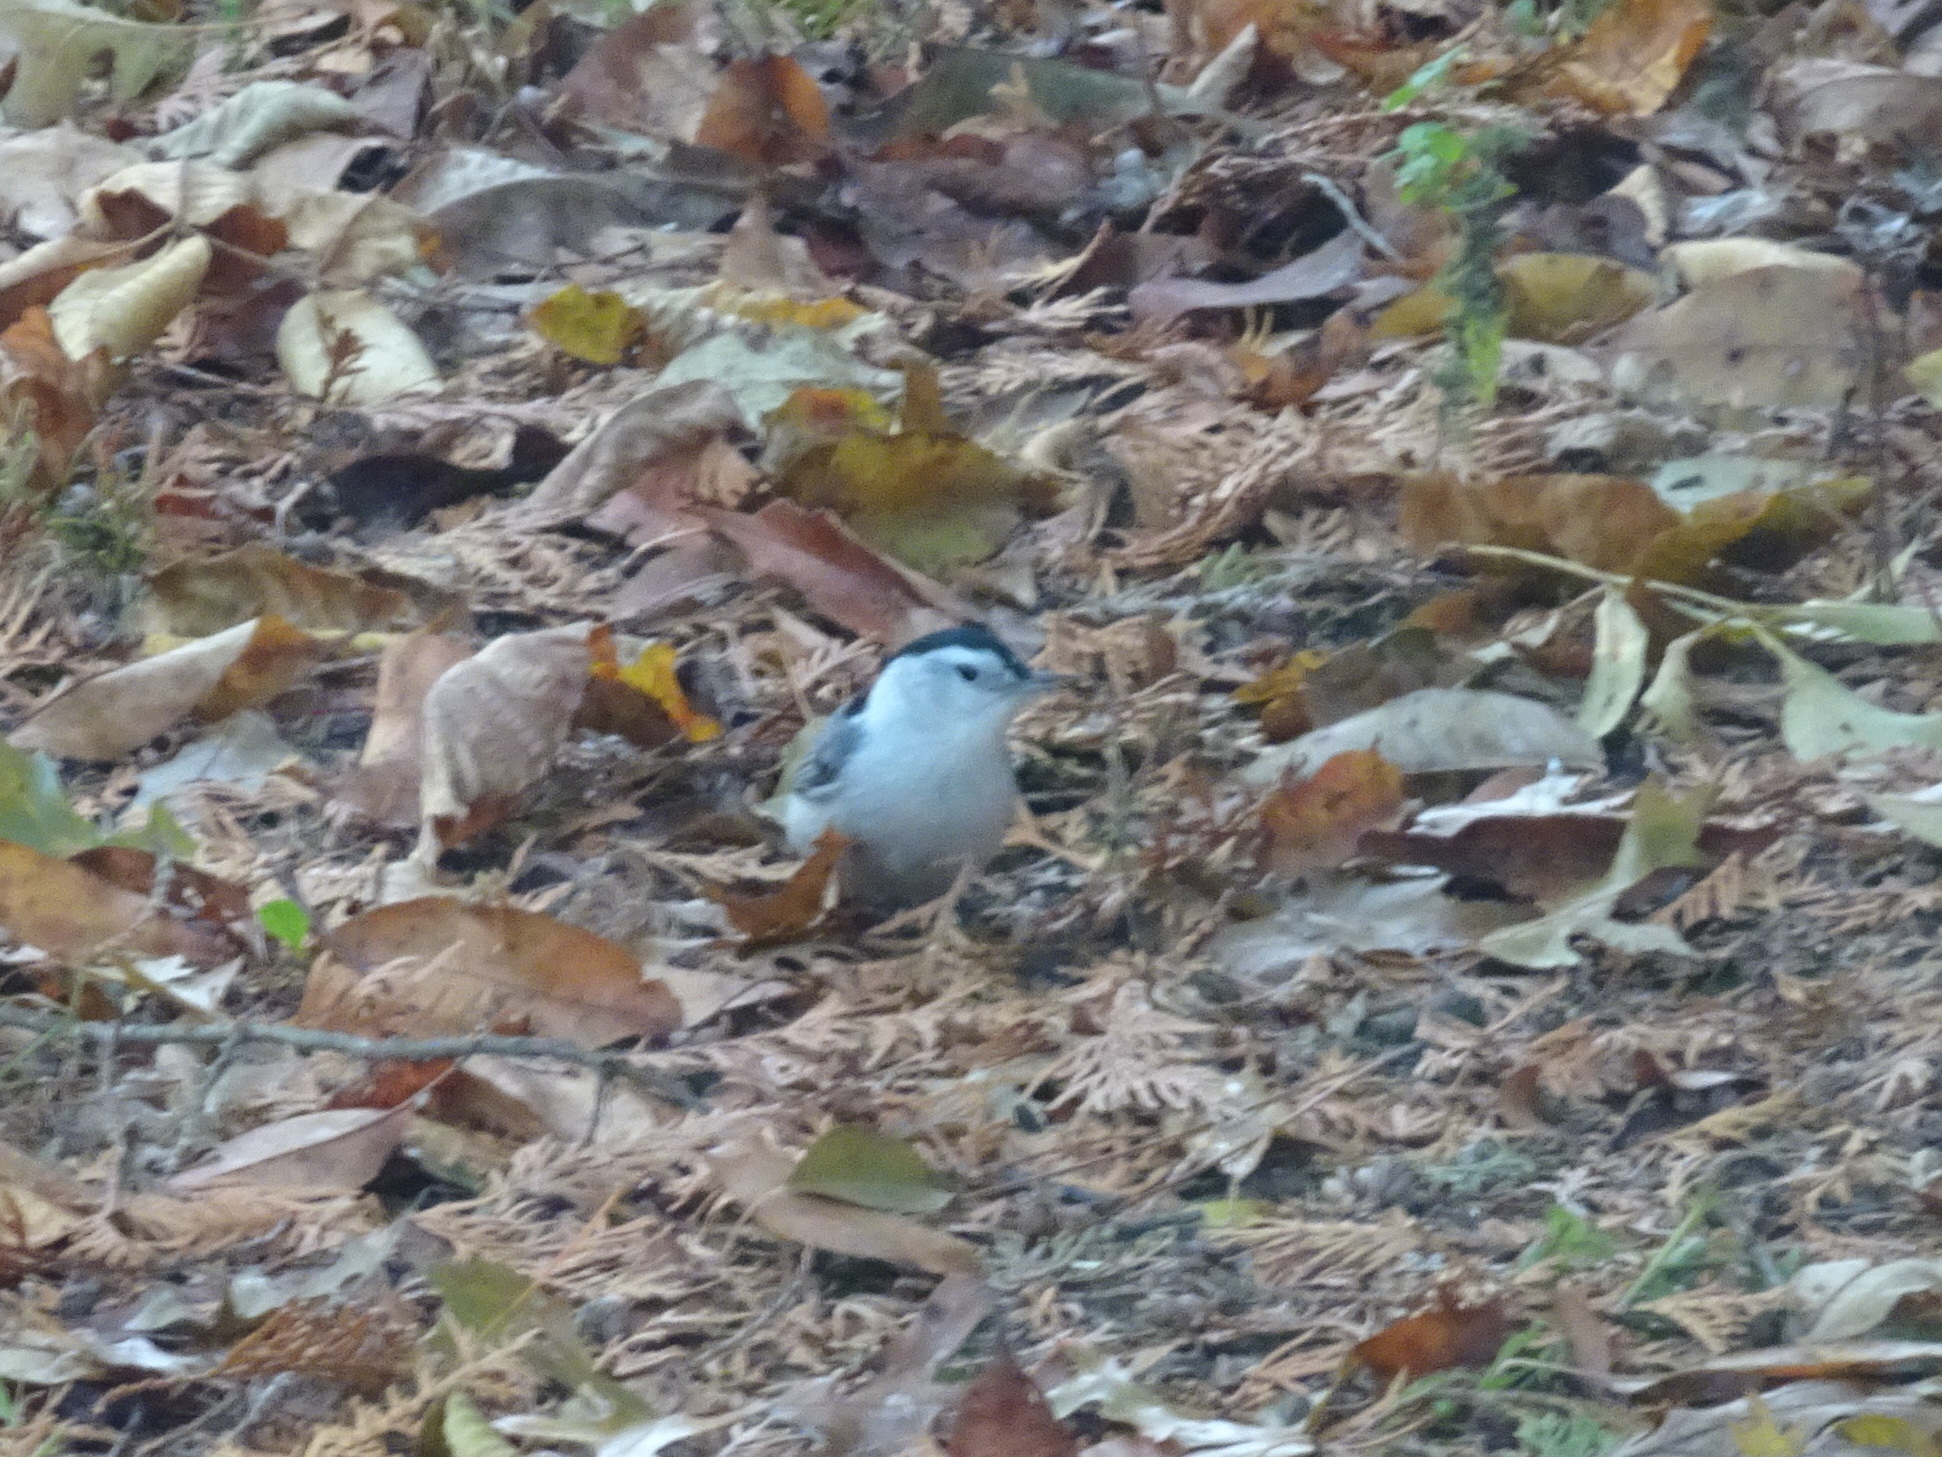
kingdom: Animalia
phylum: Chordata
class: Aves
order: Passeriformes
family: Sittidae
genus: Sitta
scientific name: Sitta carolinensis
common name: White-breasted nuthatch
